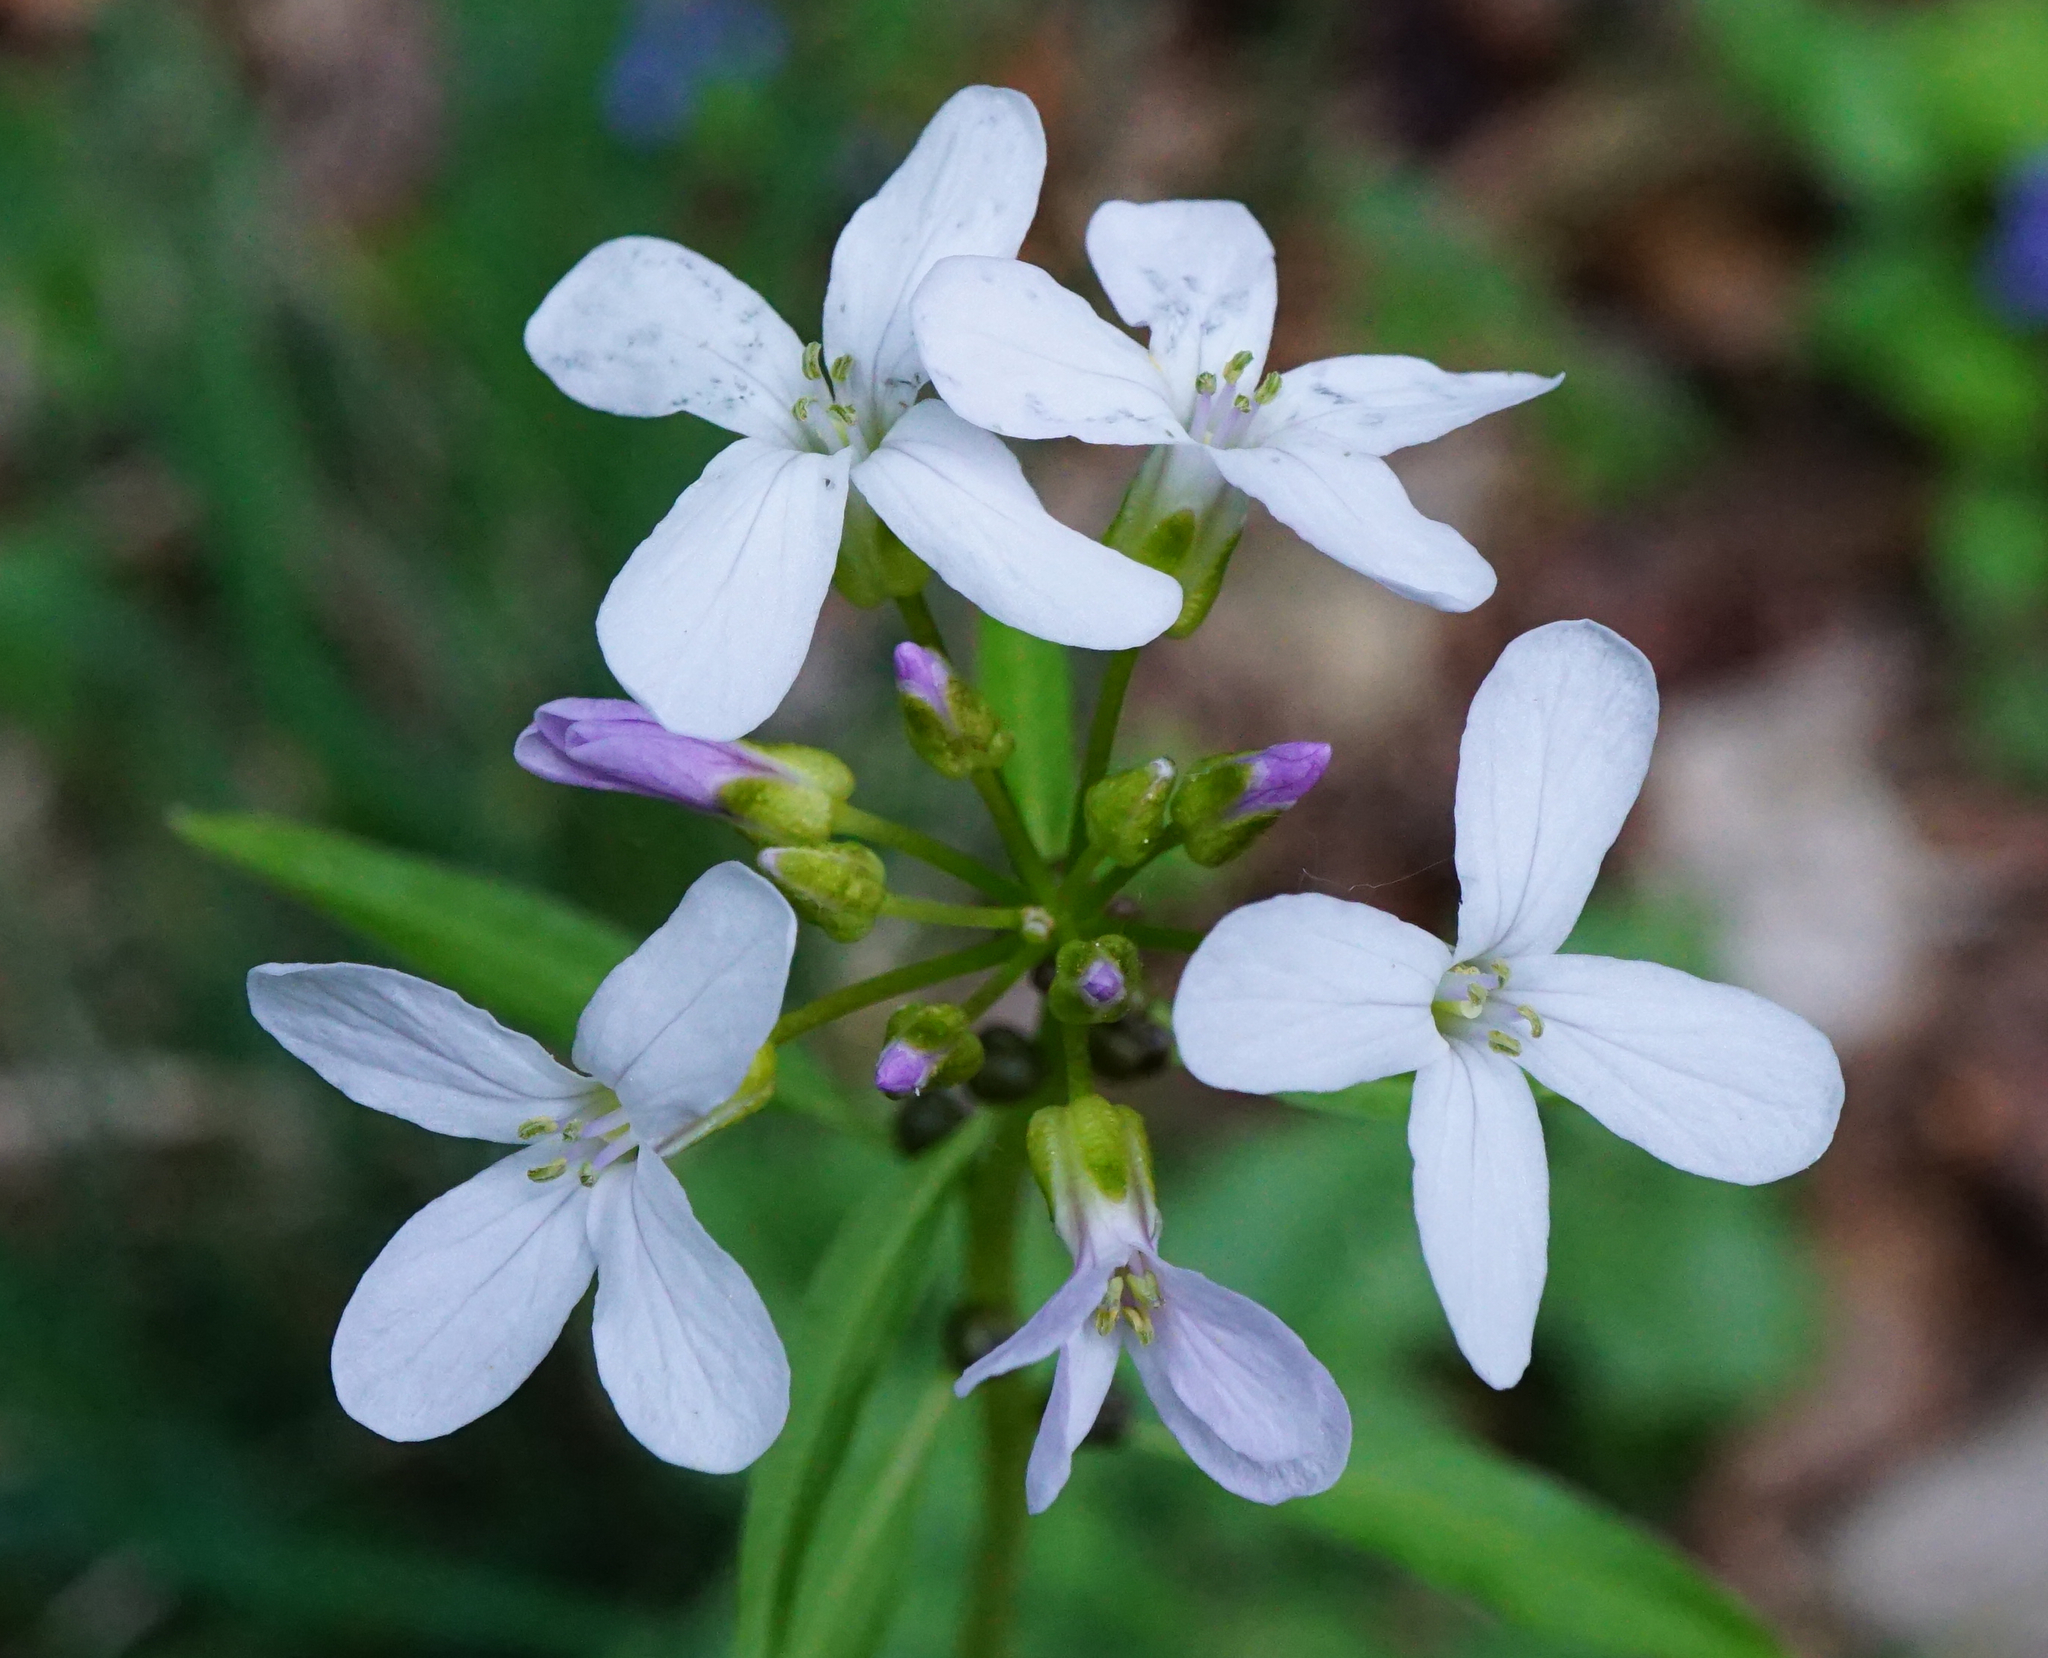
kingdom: Plantae
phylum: Tracheophyta
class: Magnoliopsida
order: Brassicales
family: Brassicaceae
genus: Cardamine
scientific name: Cardamine bulbifera
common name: Coralroot bittercress
